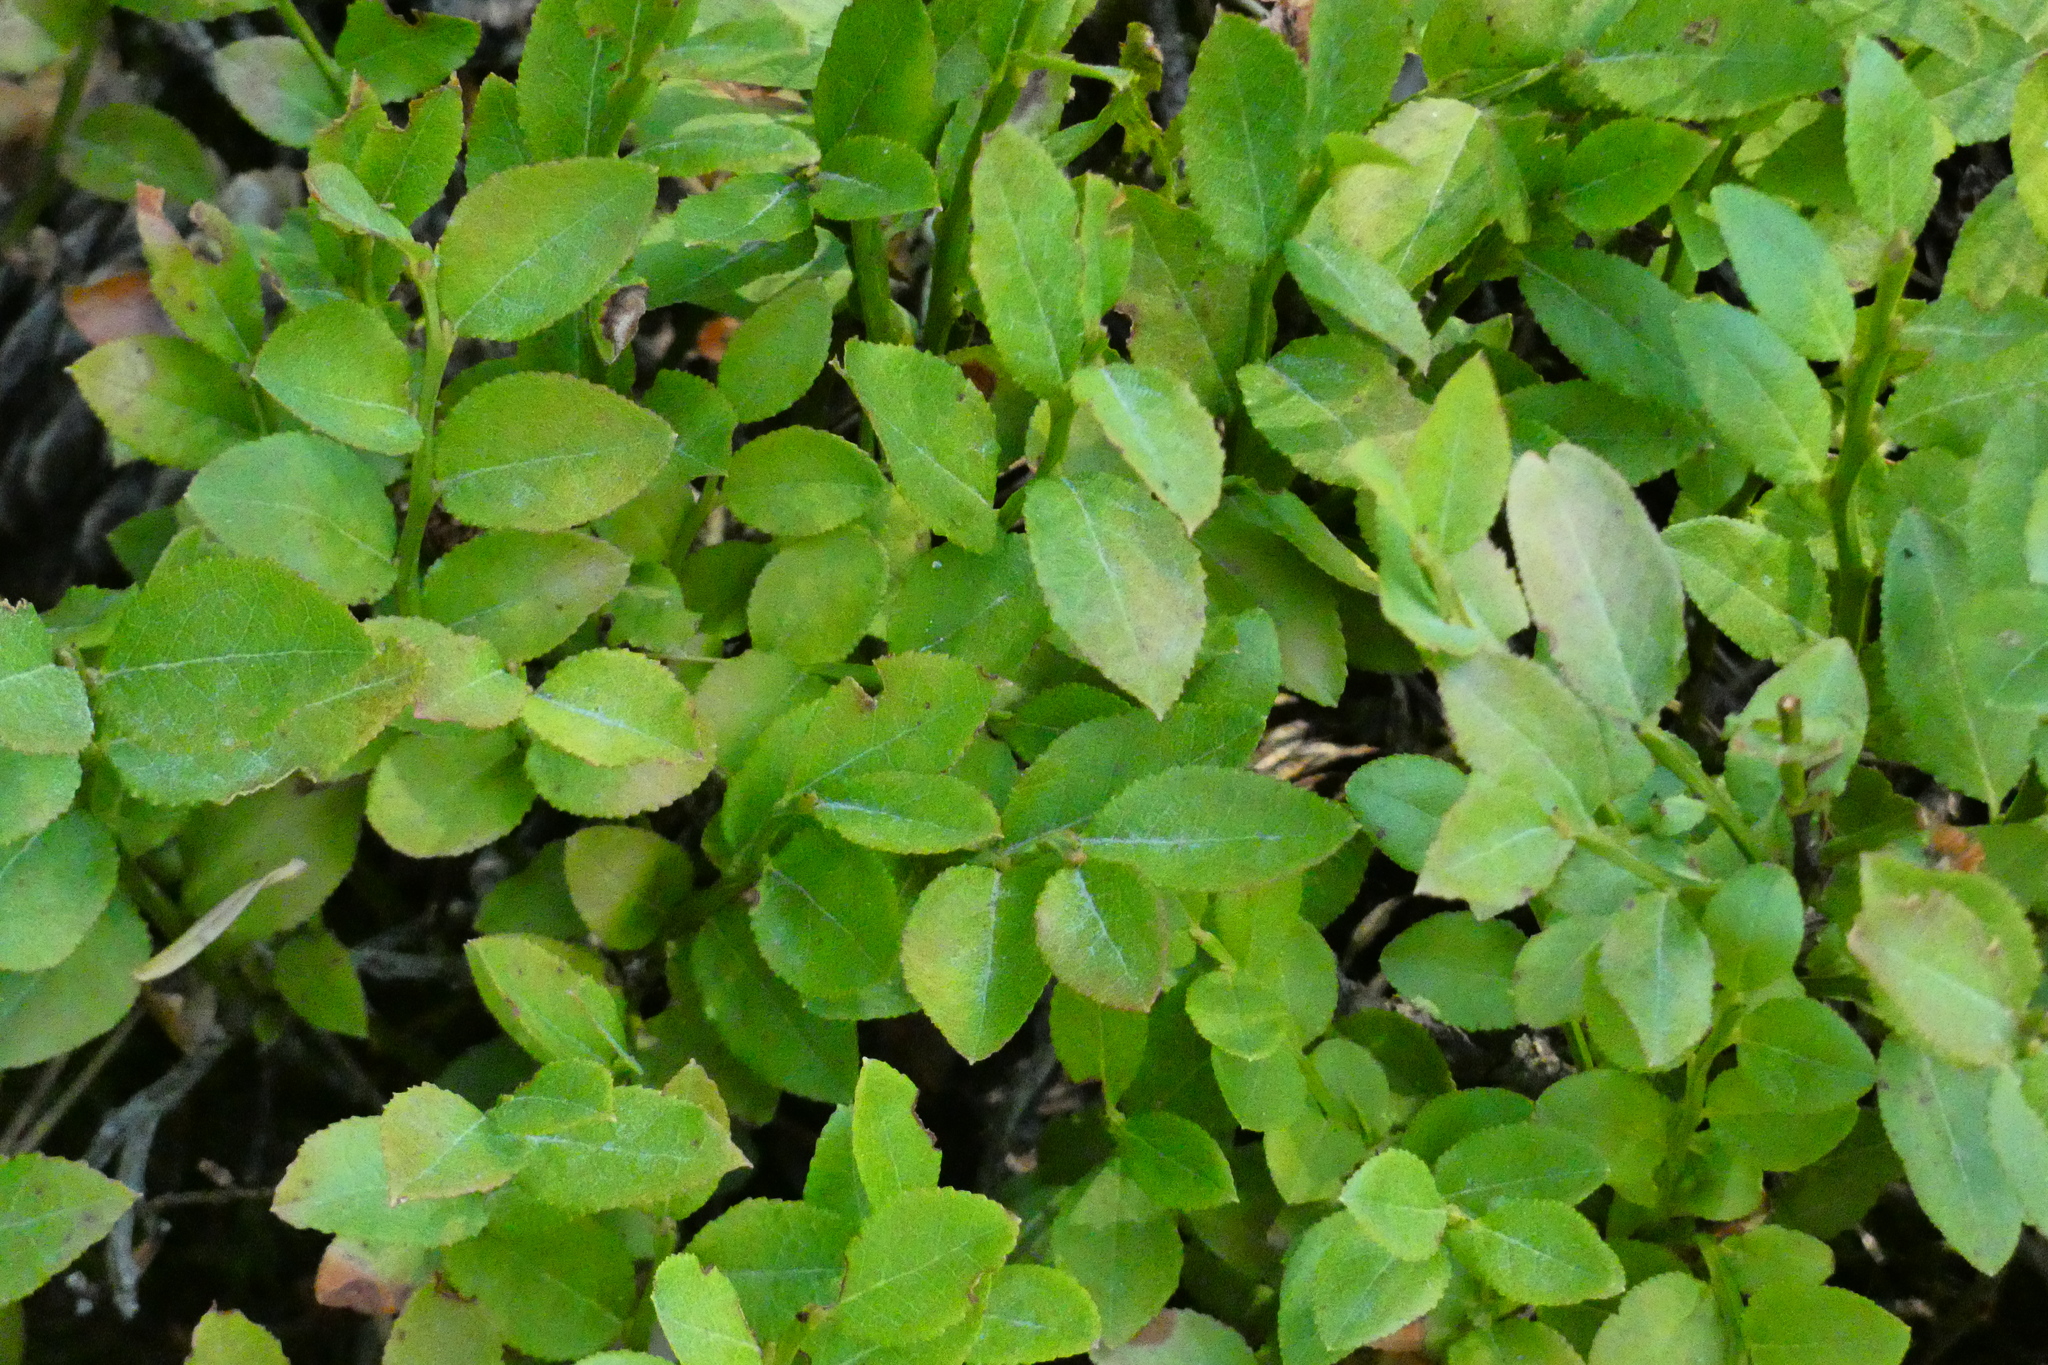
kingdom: Plantae
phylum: Tracheophyta
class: Magnoliopsida
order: Ericales
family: Ericaceae
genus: Vaccinium
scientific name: Vaccinium myrtillus
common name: Bilberry
